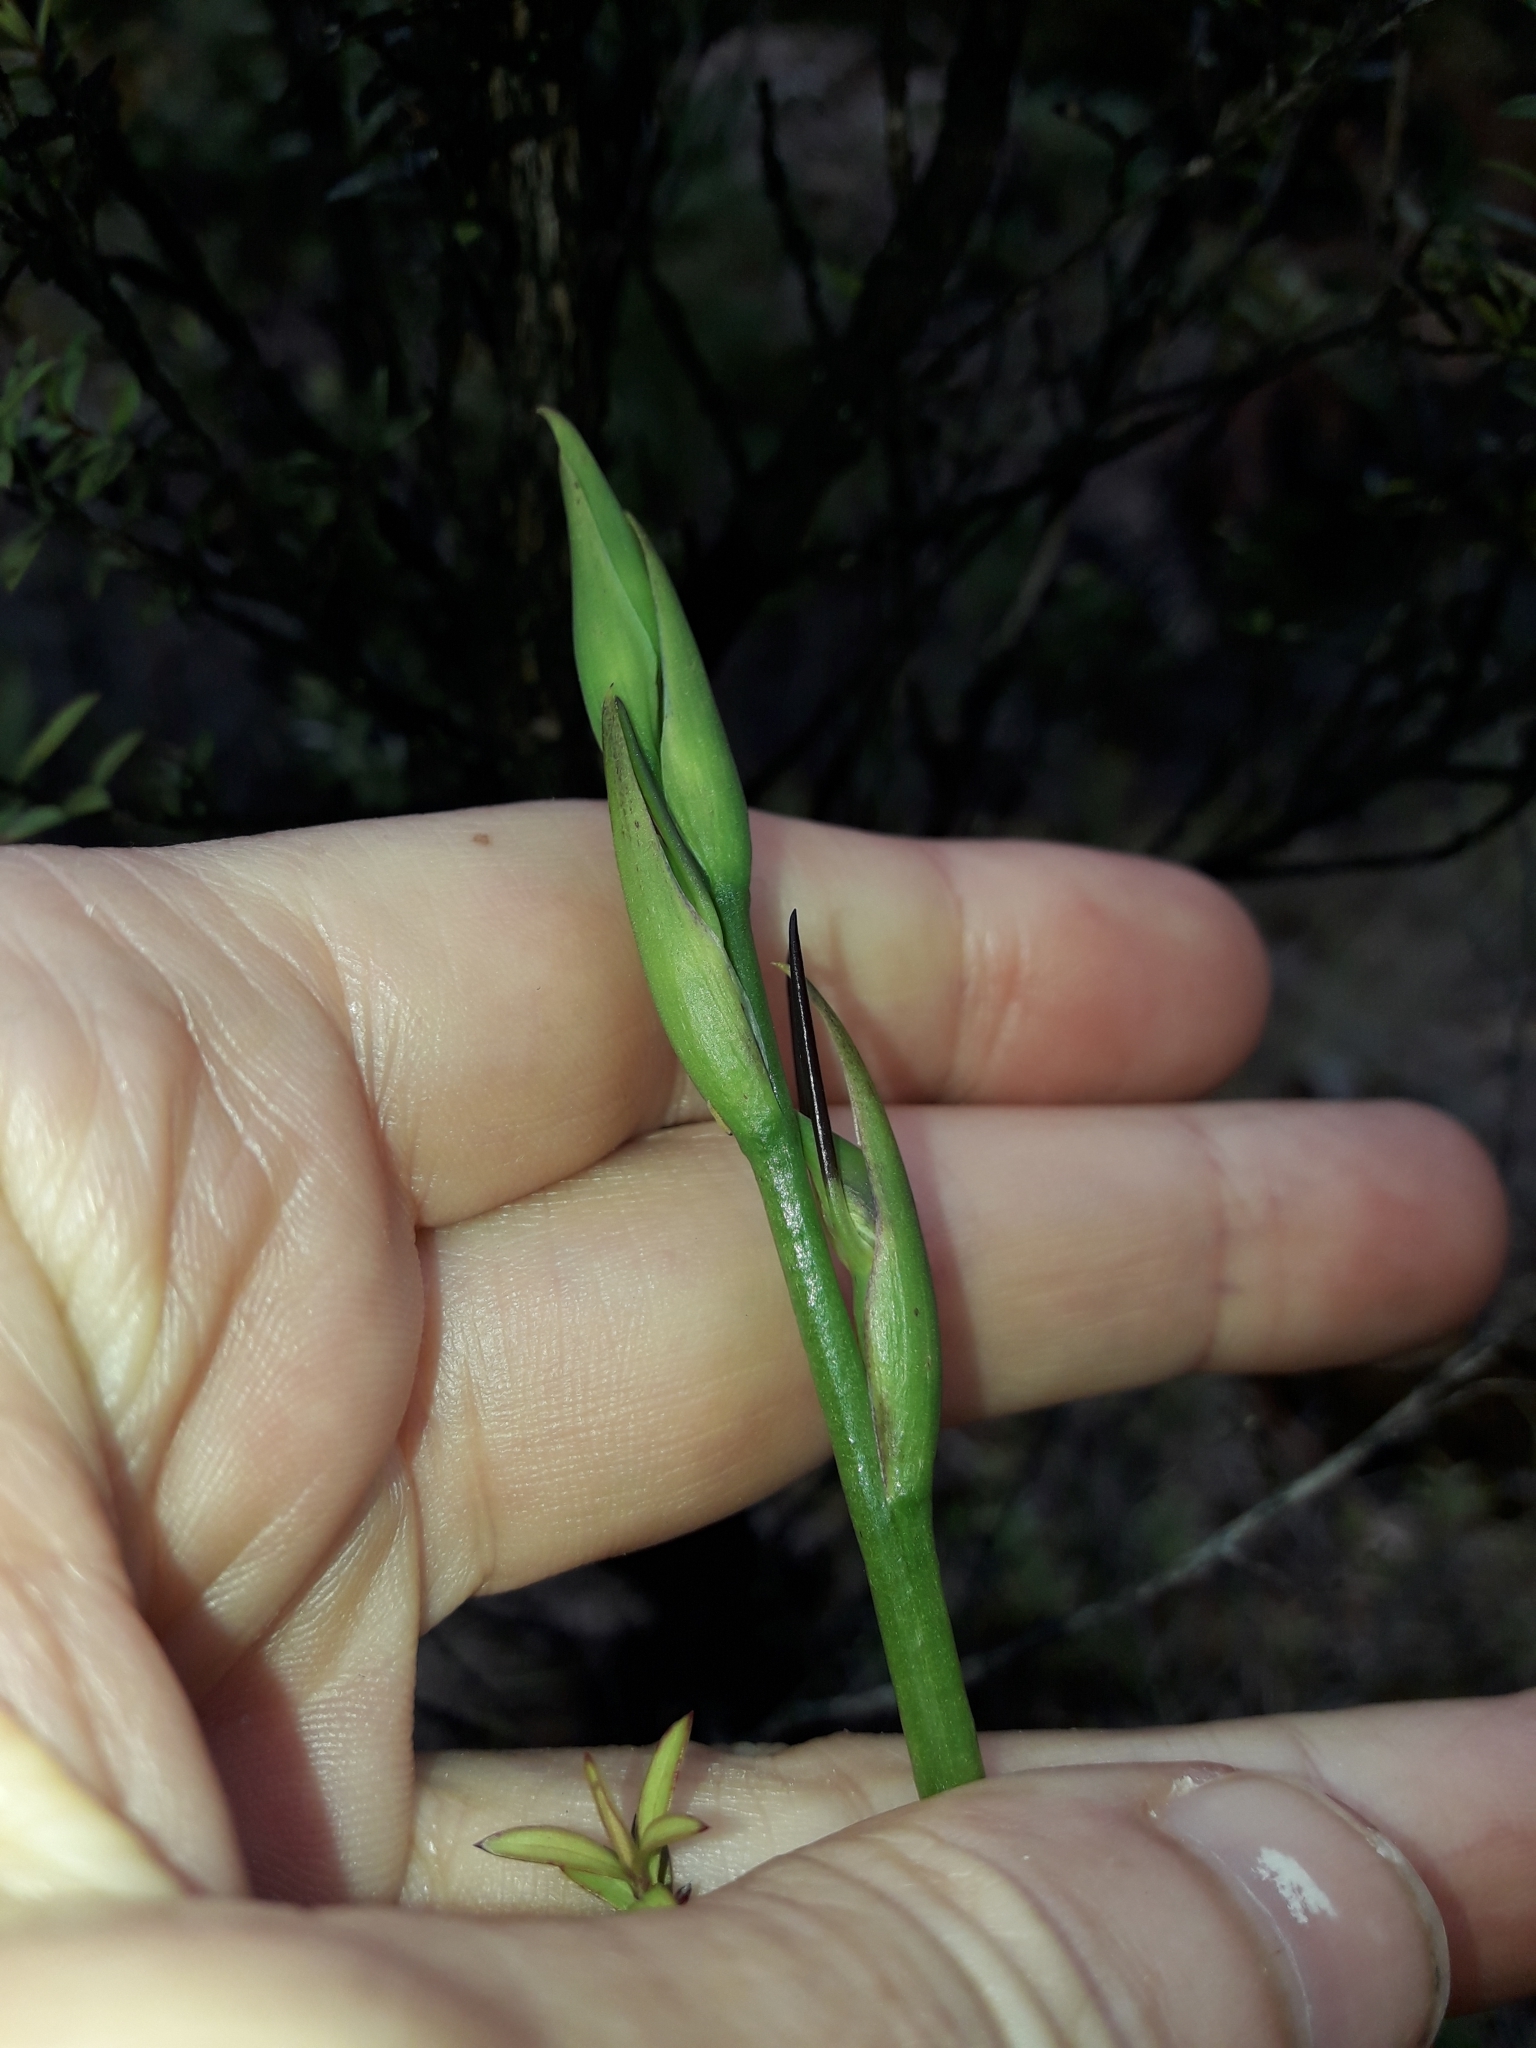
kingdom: Plantae
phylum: Tracheophyta
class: Liliopsida
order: Asparagales
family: Orchidaceae
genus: Orthoceras
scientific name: Orthoceras novae-zeelandiae
